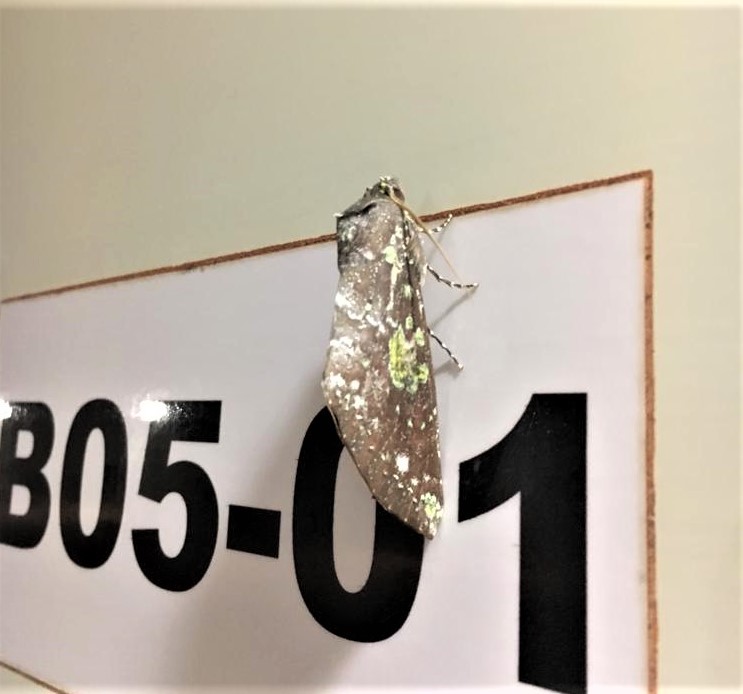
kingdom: Animalia
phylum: Arthropoda
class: Insecta
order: Lepidoptera
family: Notodontidae
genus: Hapigia
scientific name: Hapigia gaudens
